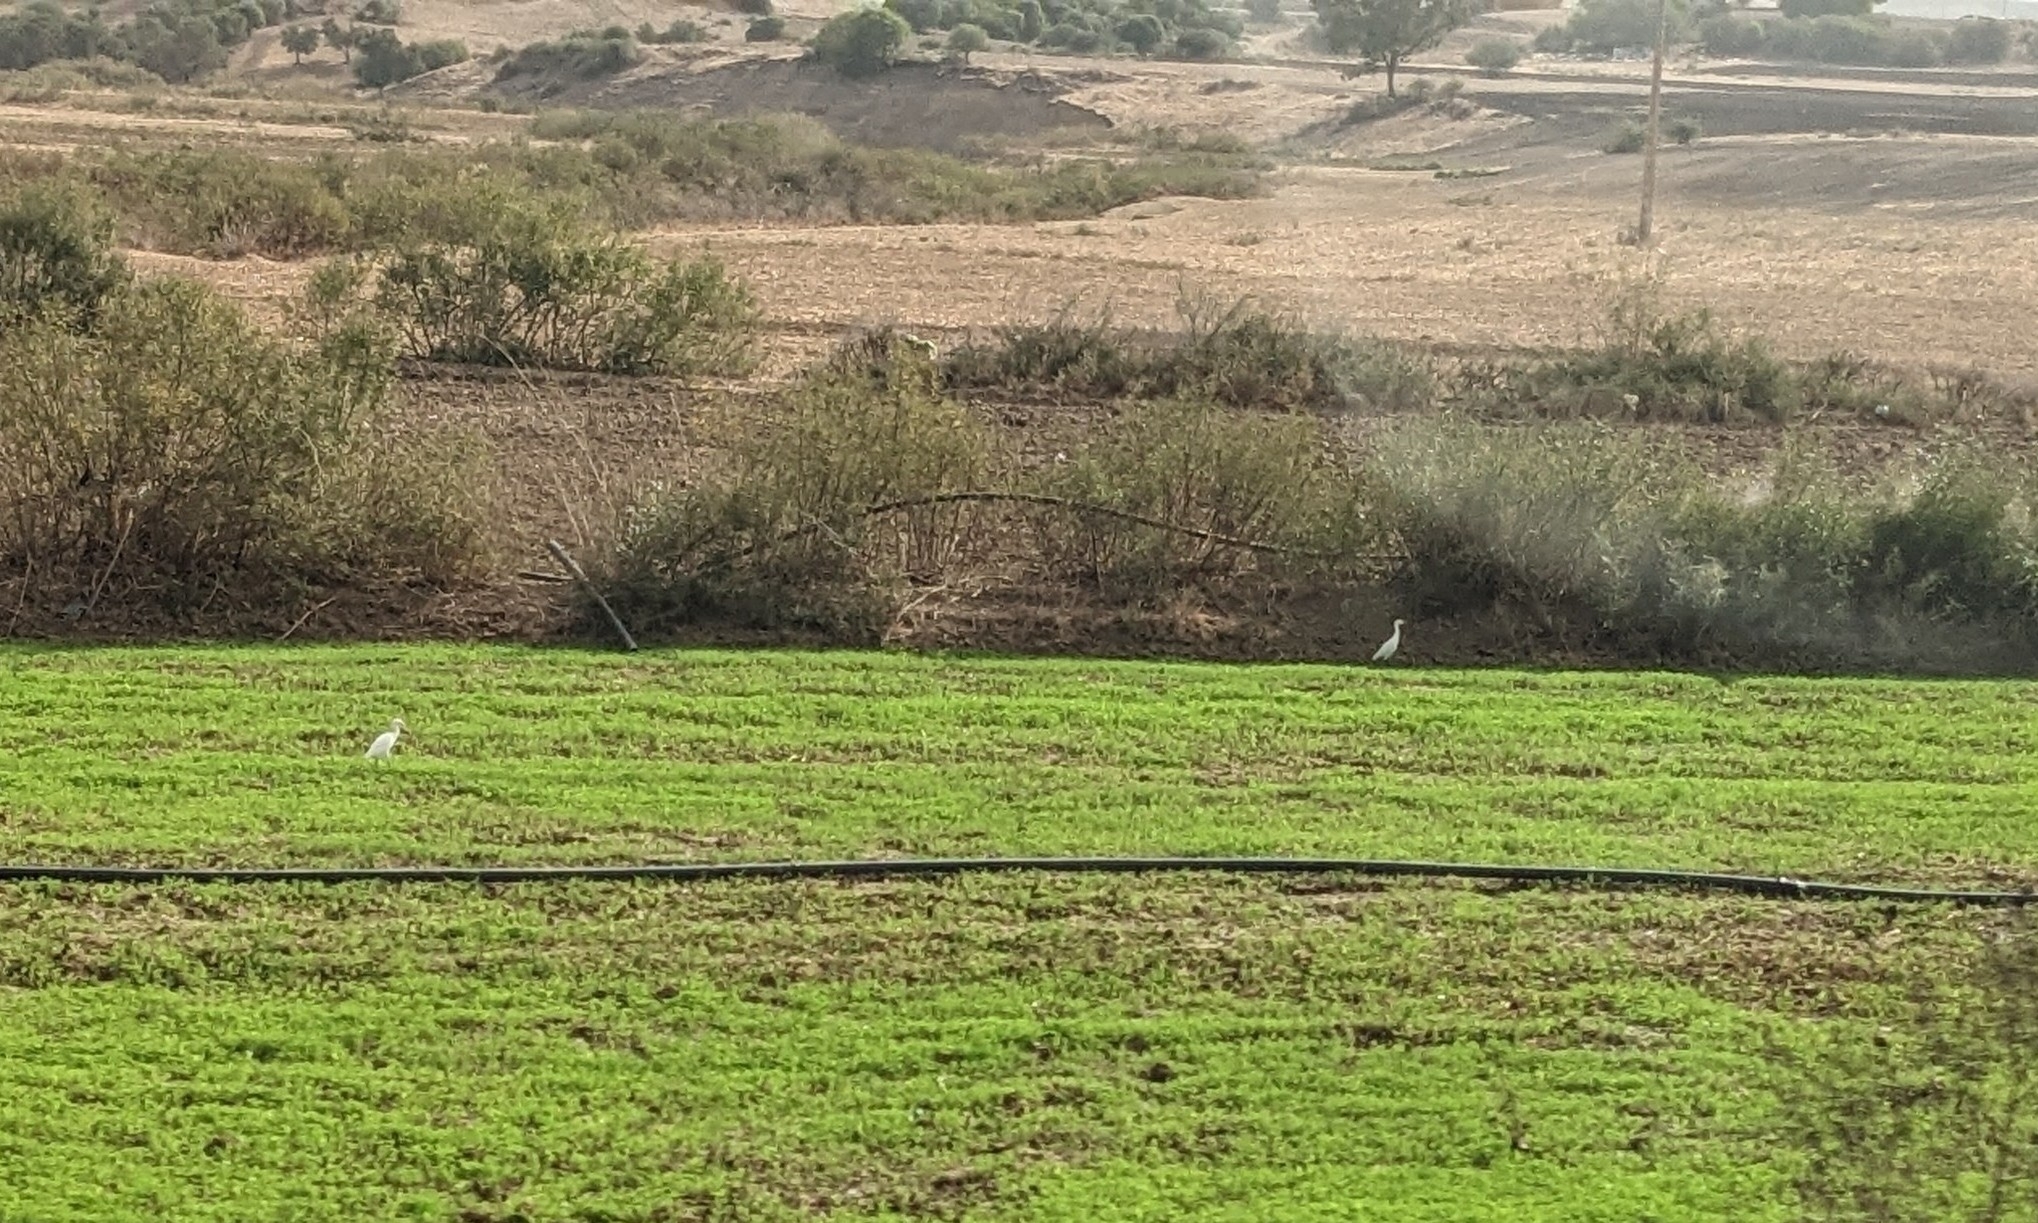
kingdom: Animalia
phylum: Chordata
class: Aves
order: Pelecaniformes
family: Ardeidae
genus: Bubulcus
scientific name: Bubulcus ibis
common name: Cattle egret
